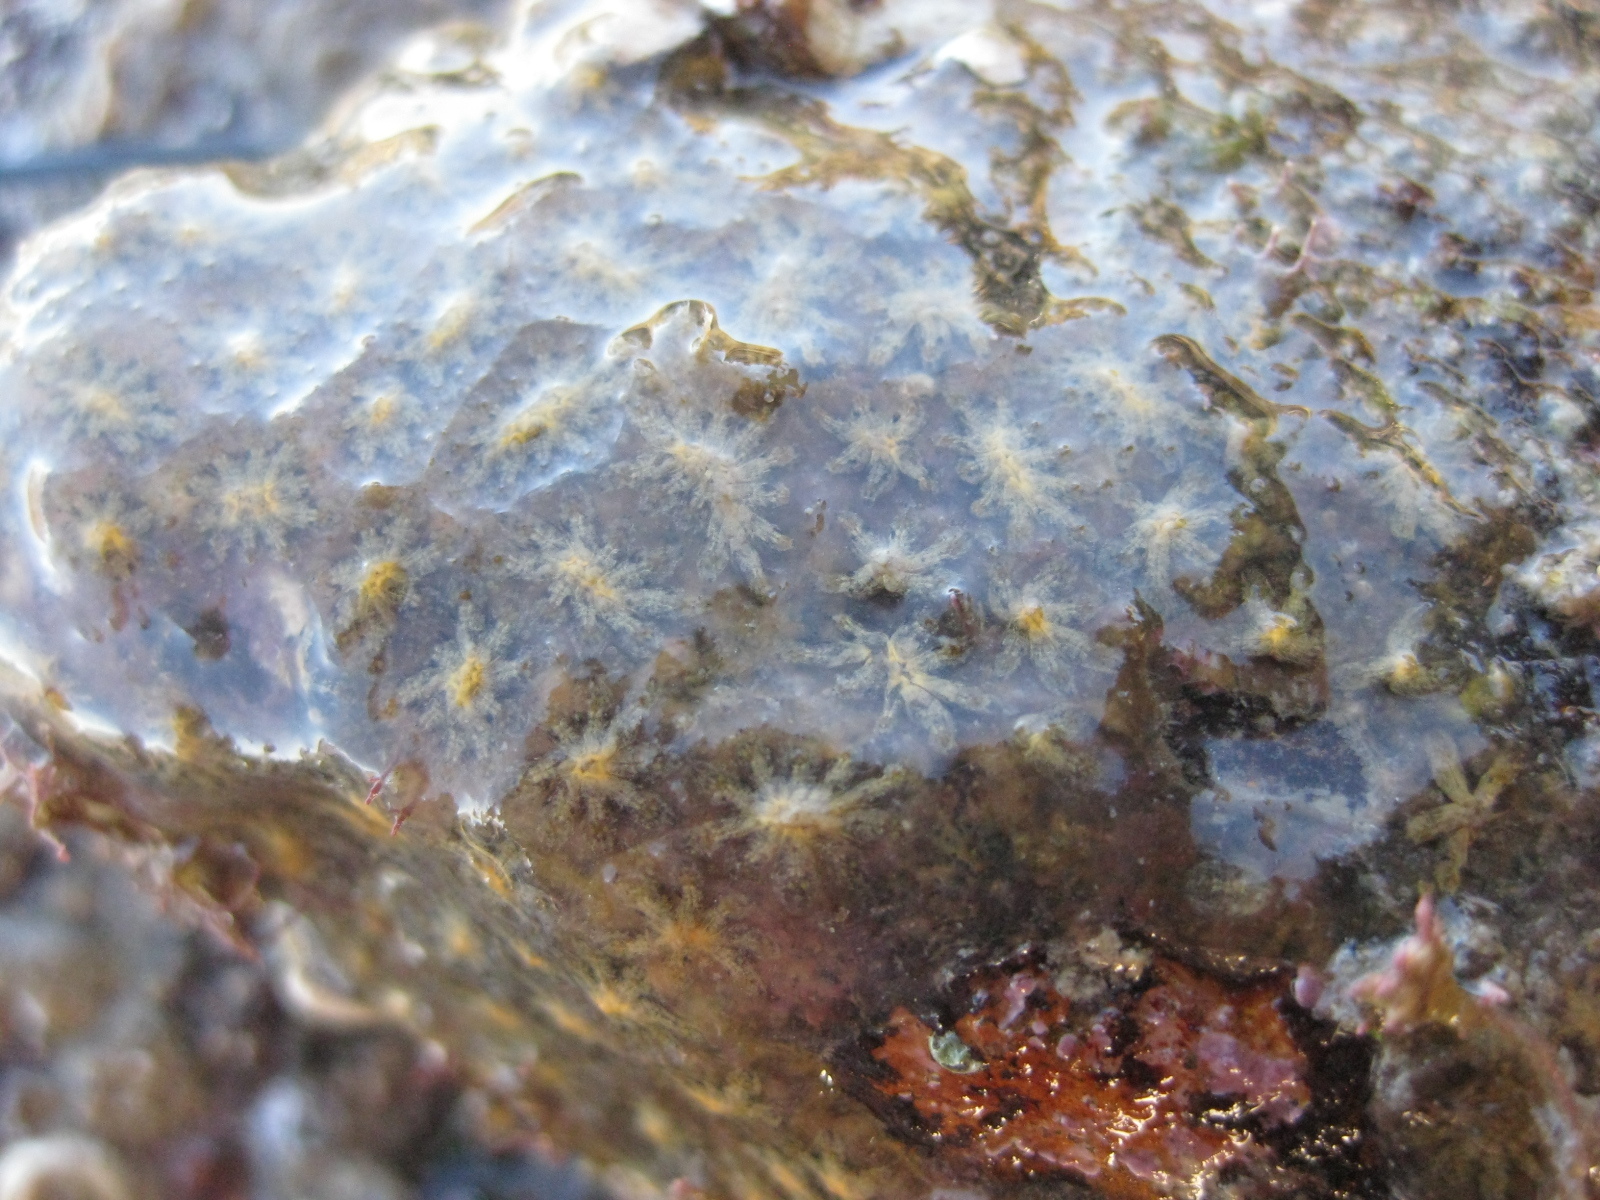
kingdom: Animalia
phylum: Chordata
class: Ascidiacea
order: Stolidobranchia
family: Styelidae
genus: Botryllus
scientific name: Botryllus schlosseri
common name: Golden star tunicate
